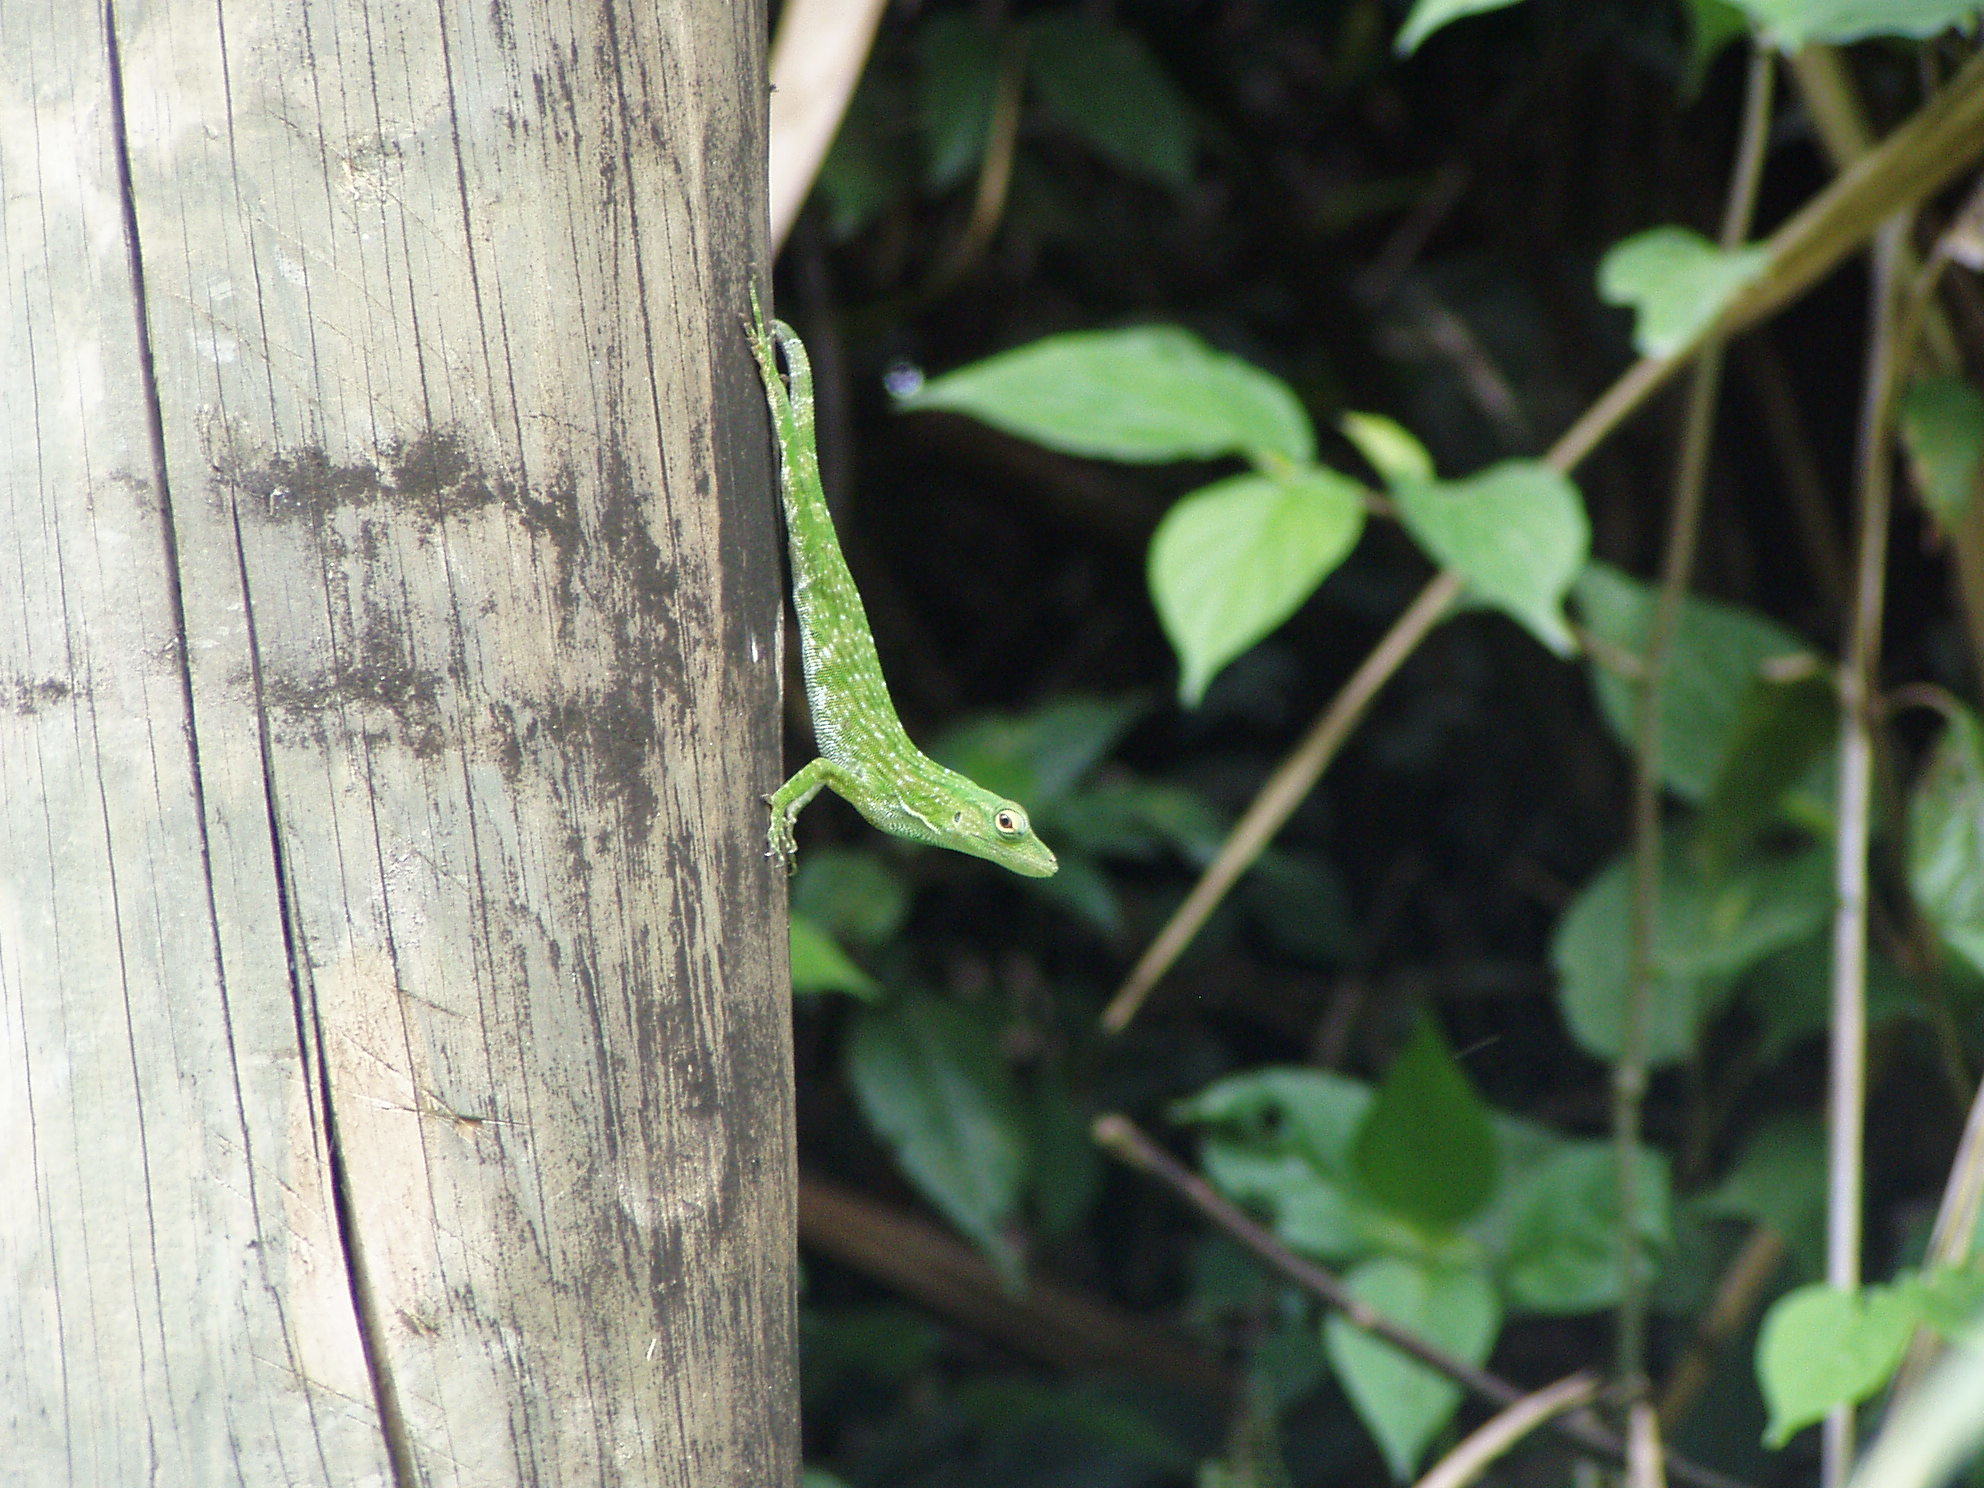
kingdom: Animalia
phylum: Chordata
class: Squamata
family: Dactyloidae
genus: Anolis
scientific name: Anolis biporcatus
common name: Giant green anole
